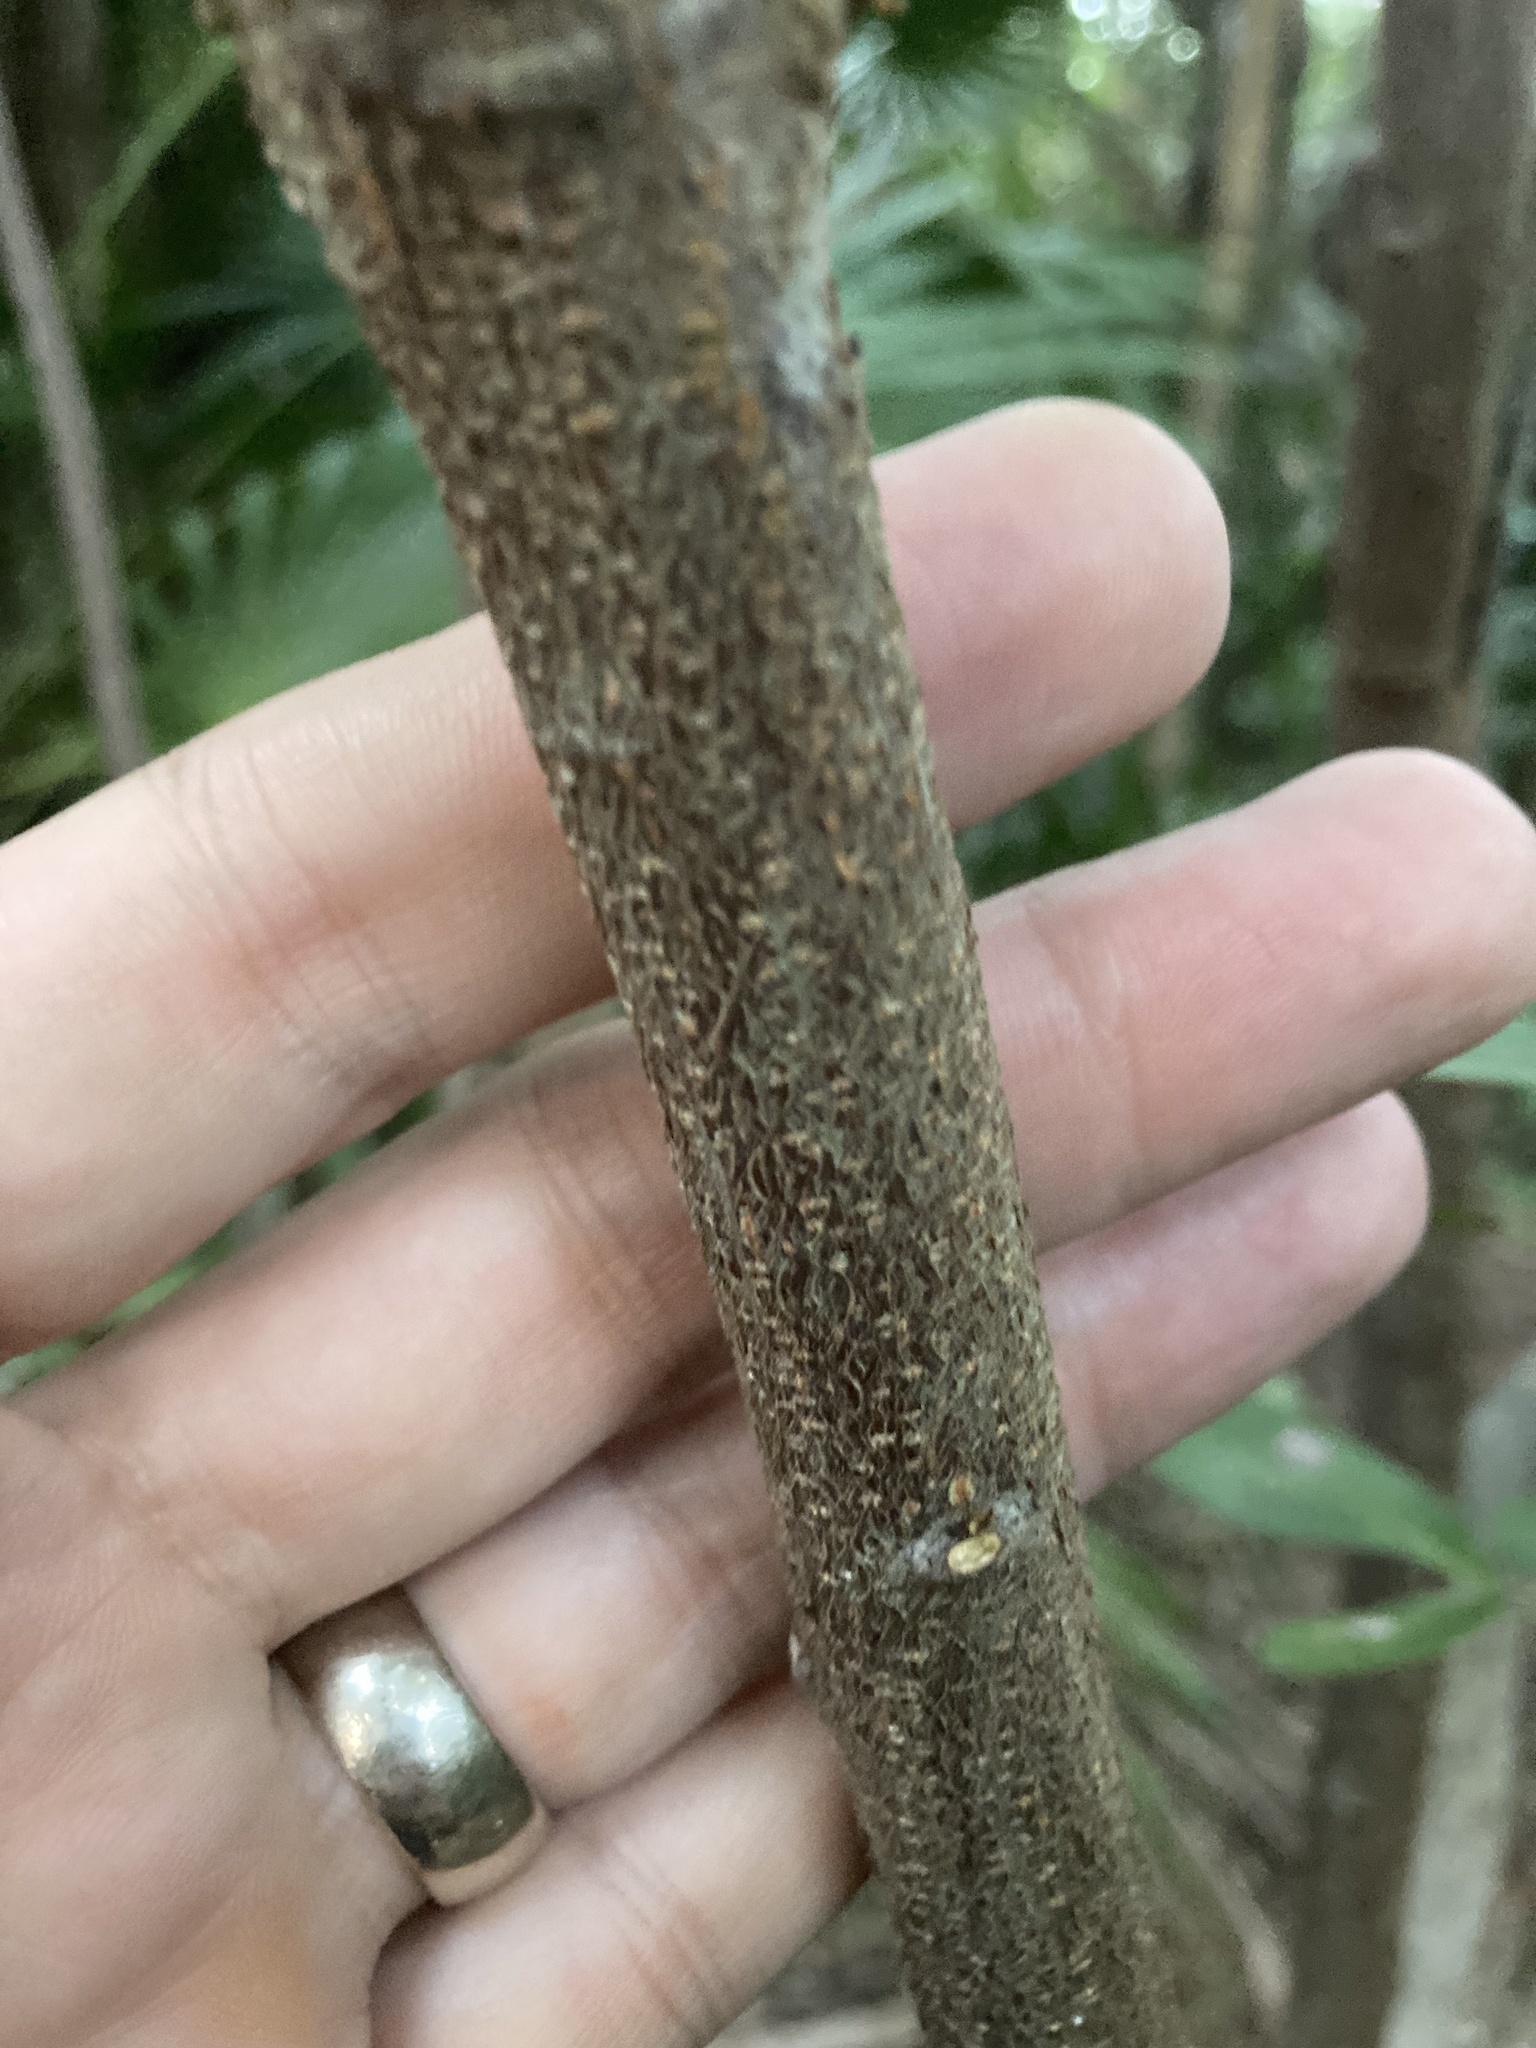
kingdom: Plantae
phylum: Tracheophyta
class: Magnoliopsida
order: Fabales
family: Fabaceae
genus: Pithecellobium
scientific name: Pithecellobium keyense
